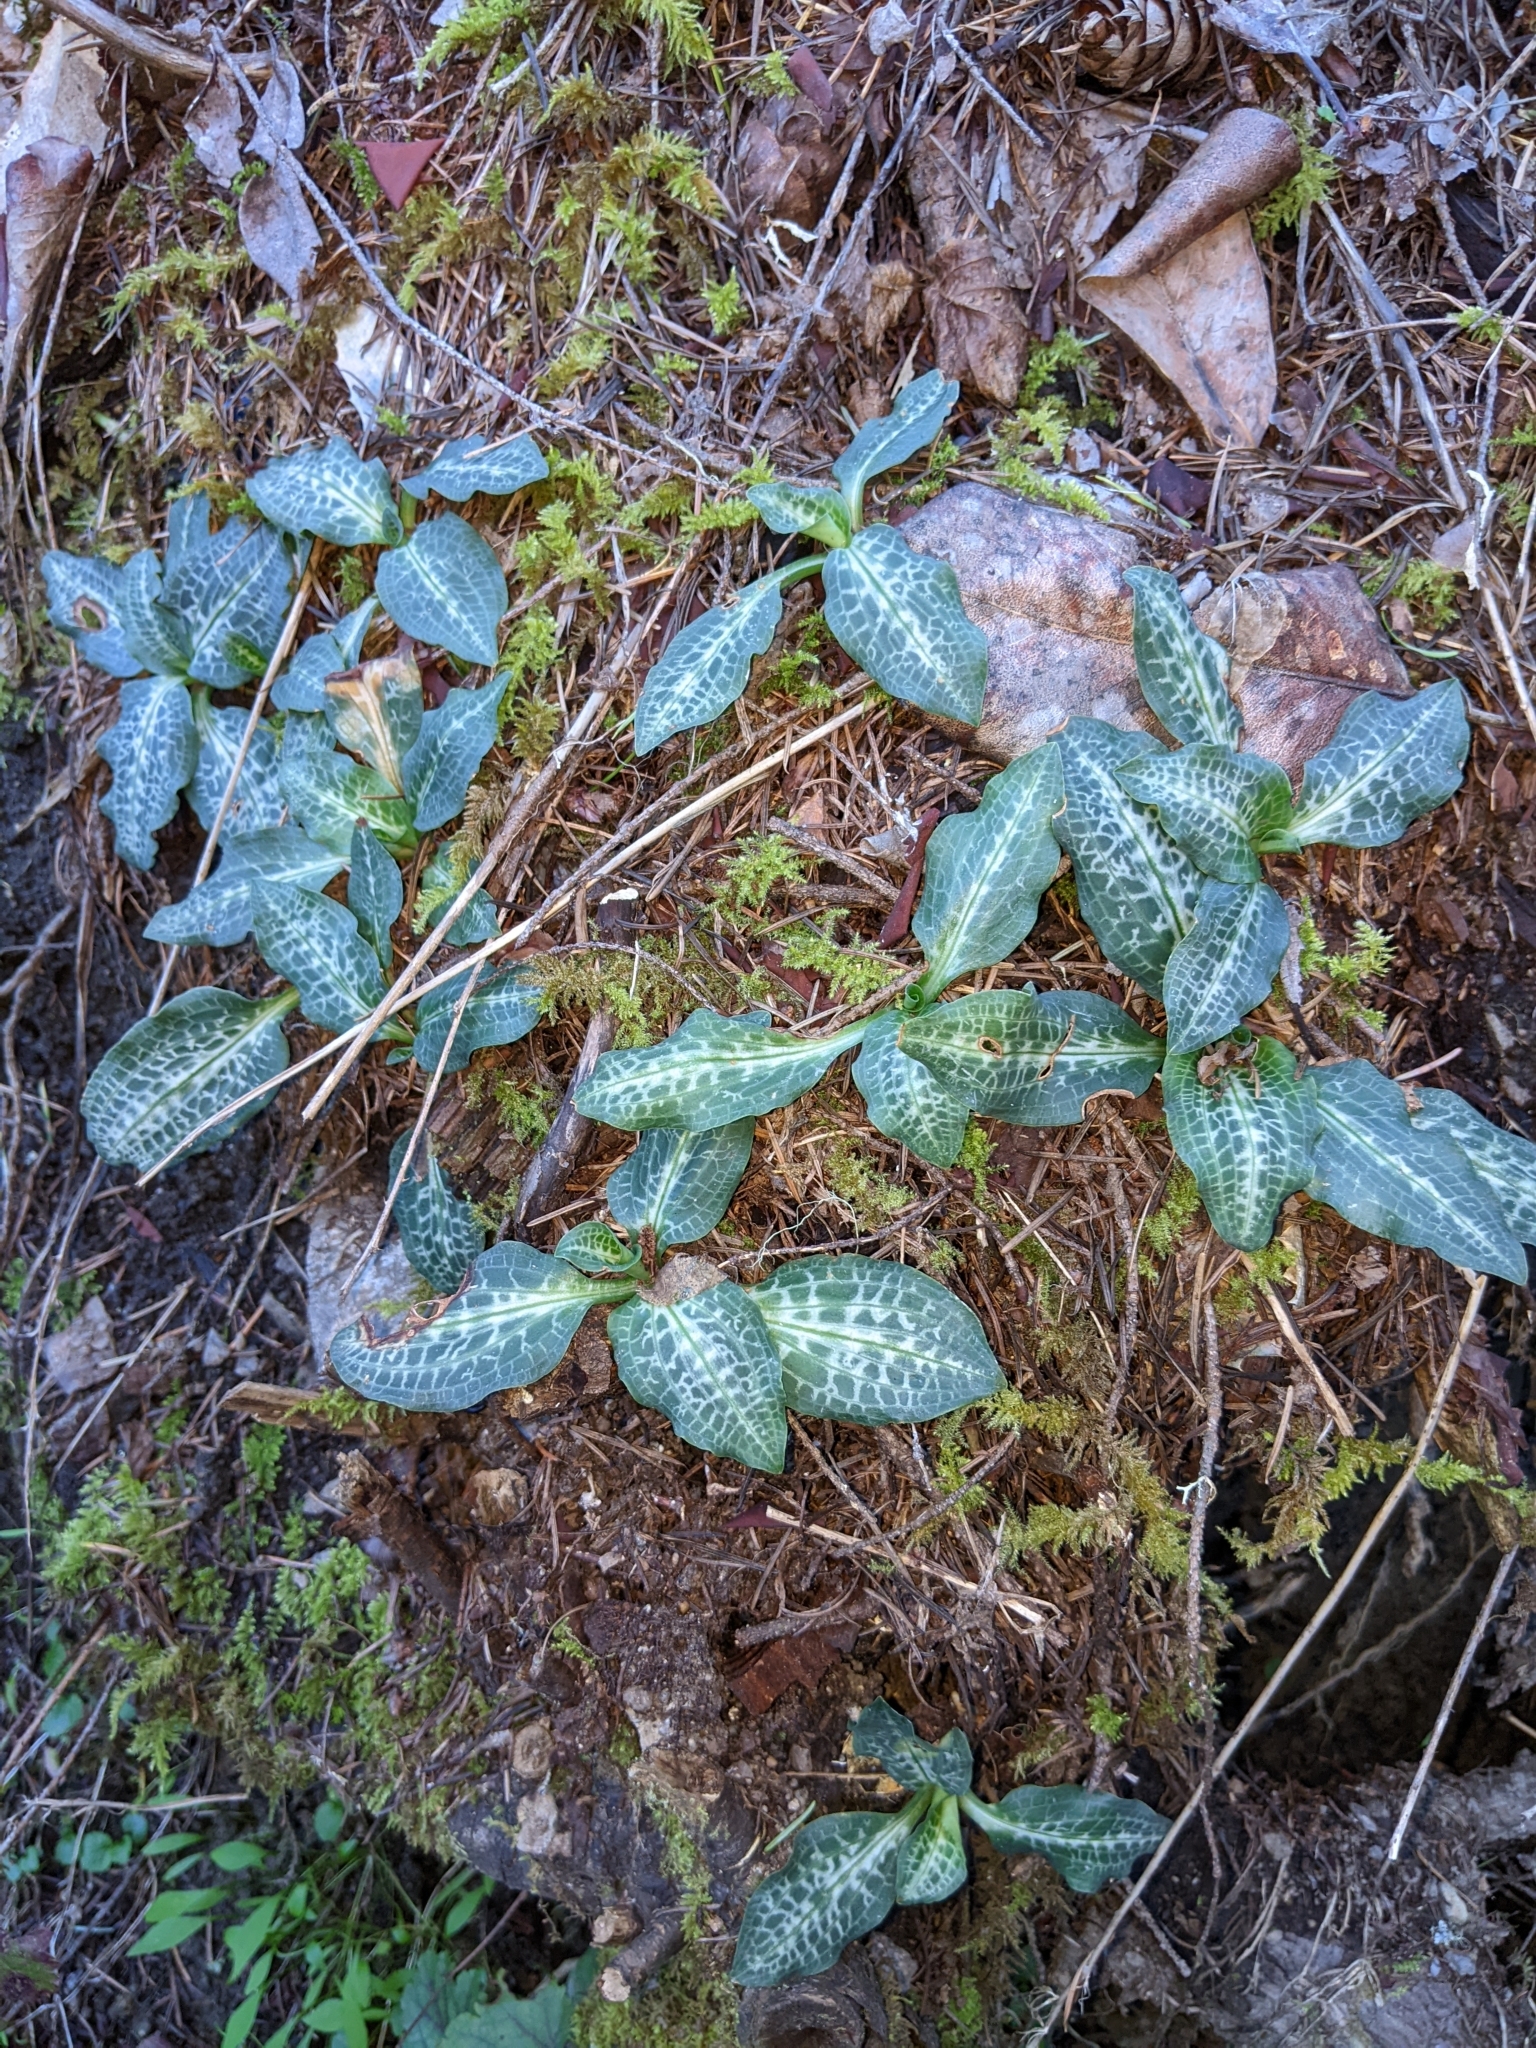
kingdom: Plantae
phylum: Tracheophyta
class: Liliopsida
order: Asparagales
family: Orchidaceae
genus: Goodyera
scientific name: Goodyera oblongifolia
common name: Giant rattlesnake-plantain
